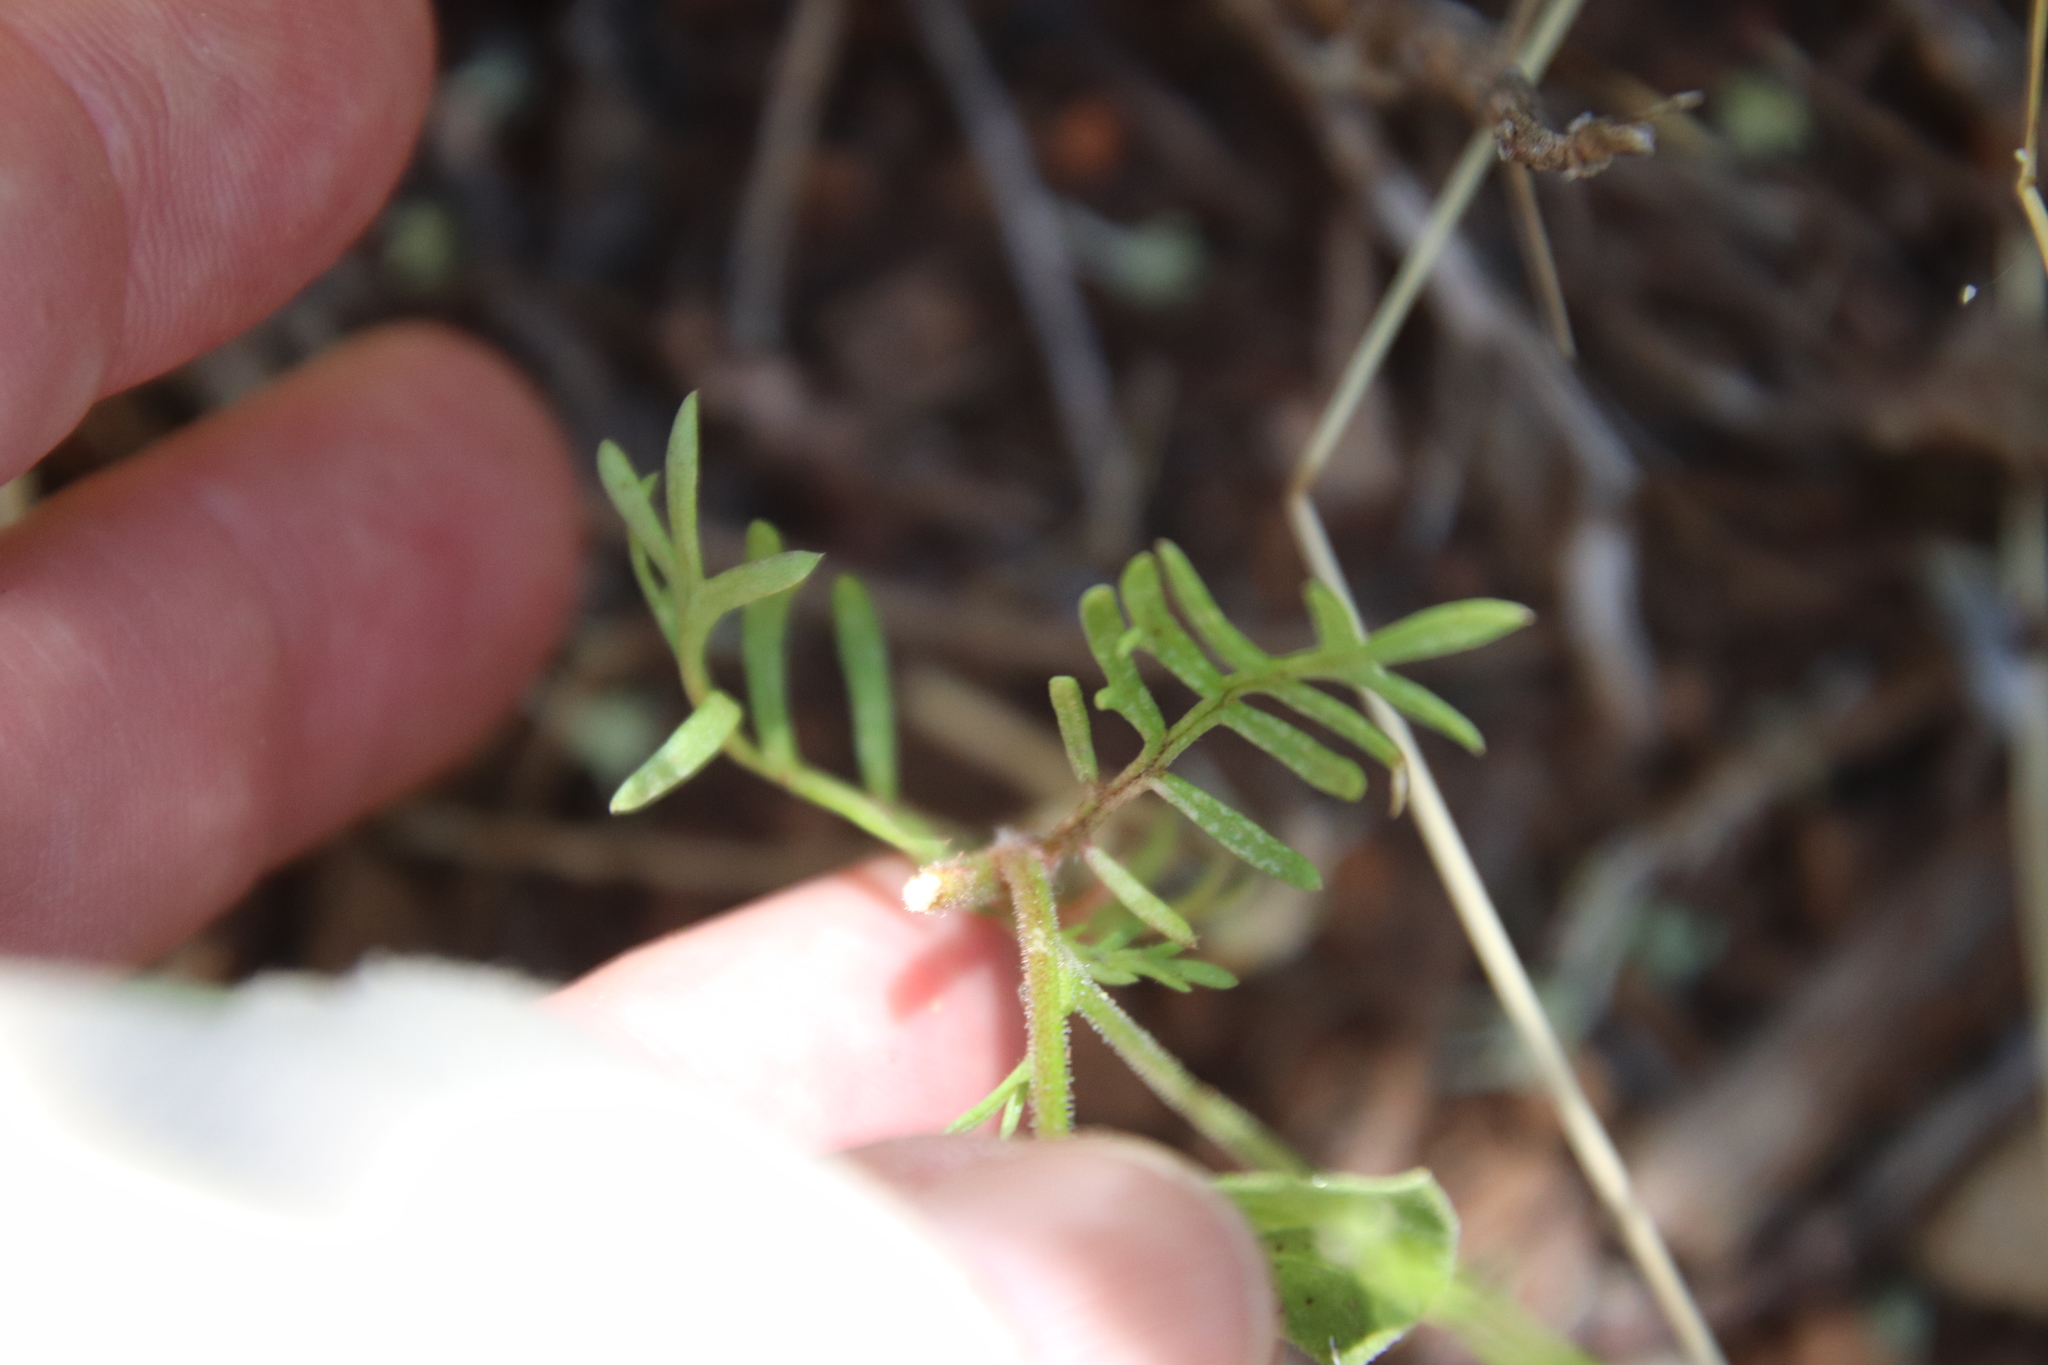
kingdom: Plantae
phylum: Tracheophyta
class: Magnoliopsida
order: Ericales
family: Polemoniaceae
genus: Gilia
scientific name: Gilia capitata
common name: Bluehead gilia
